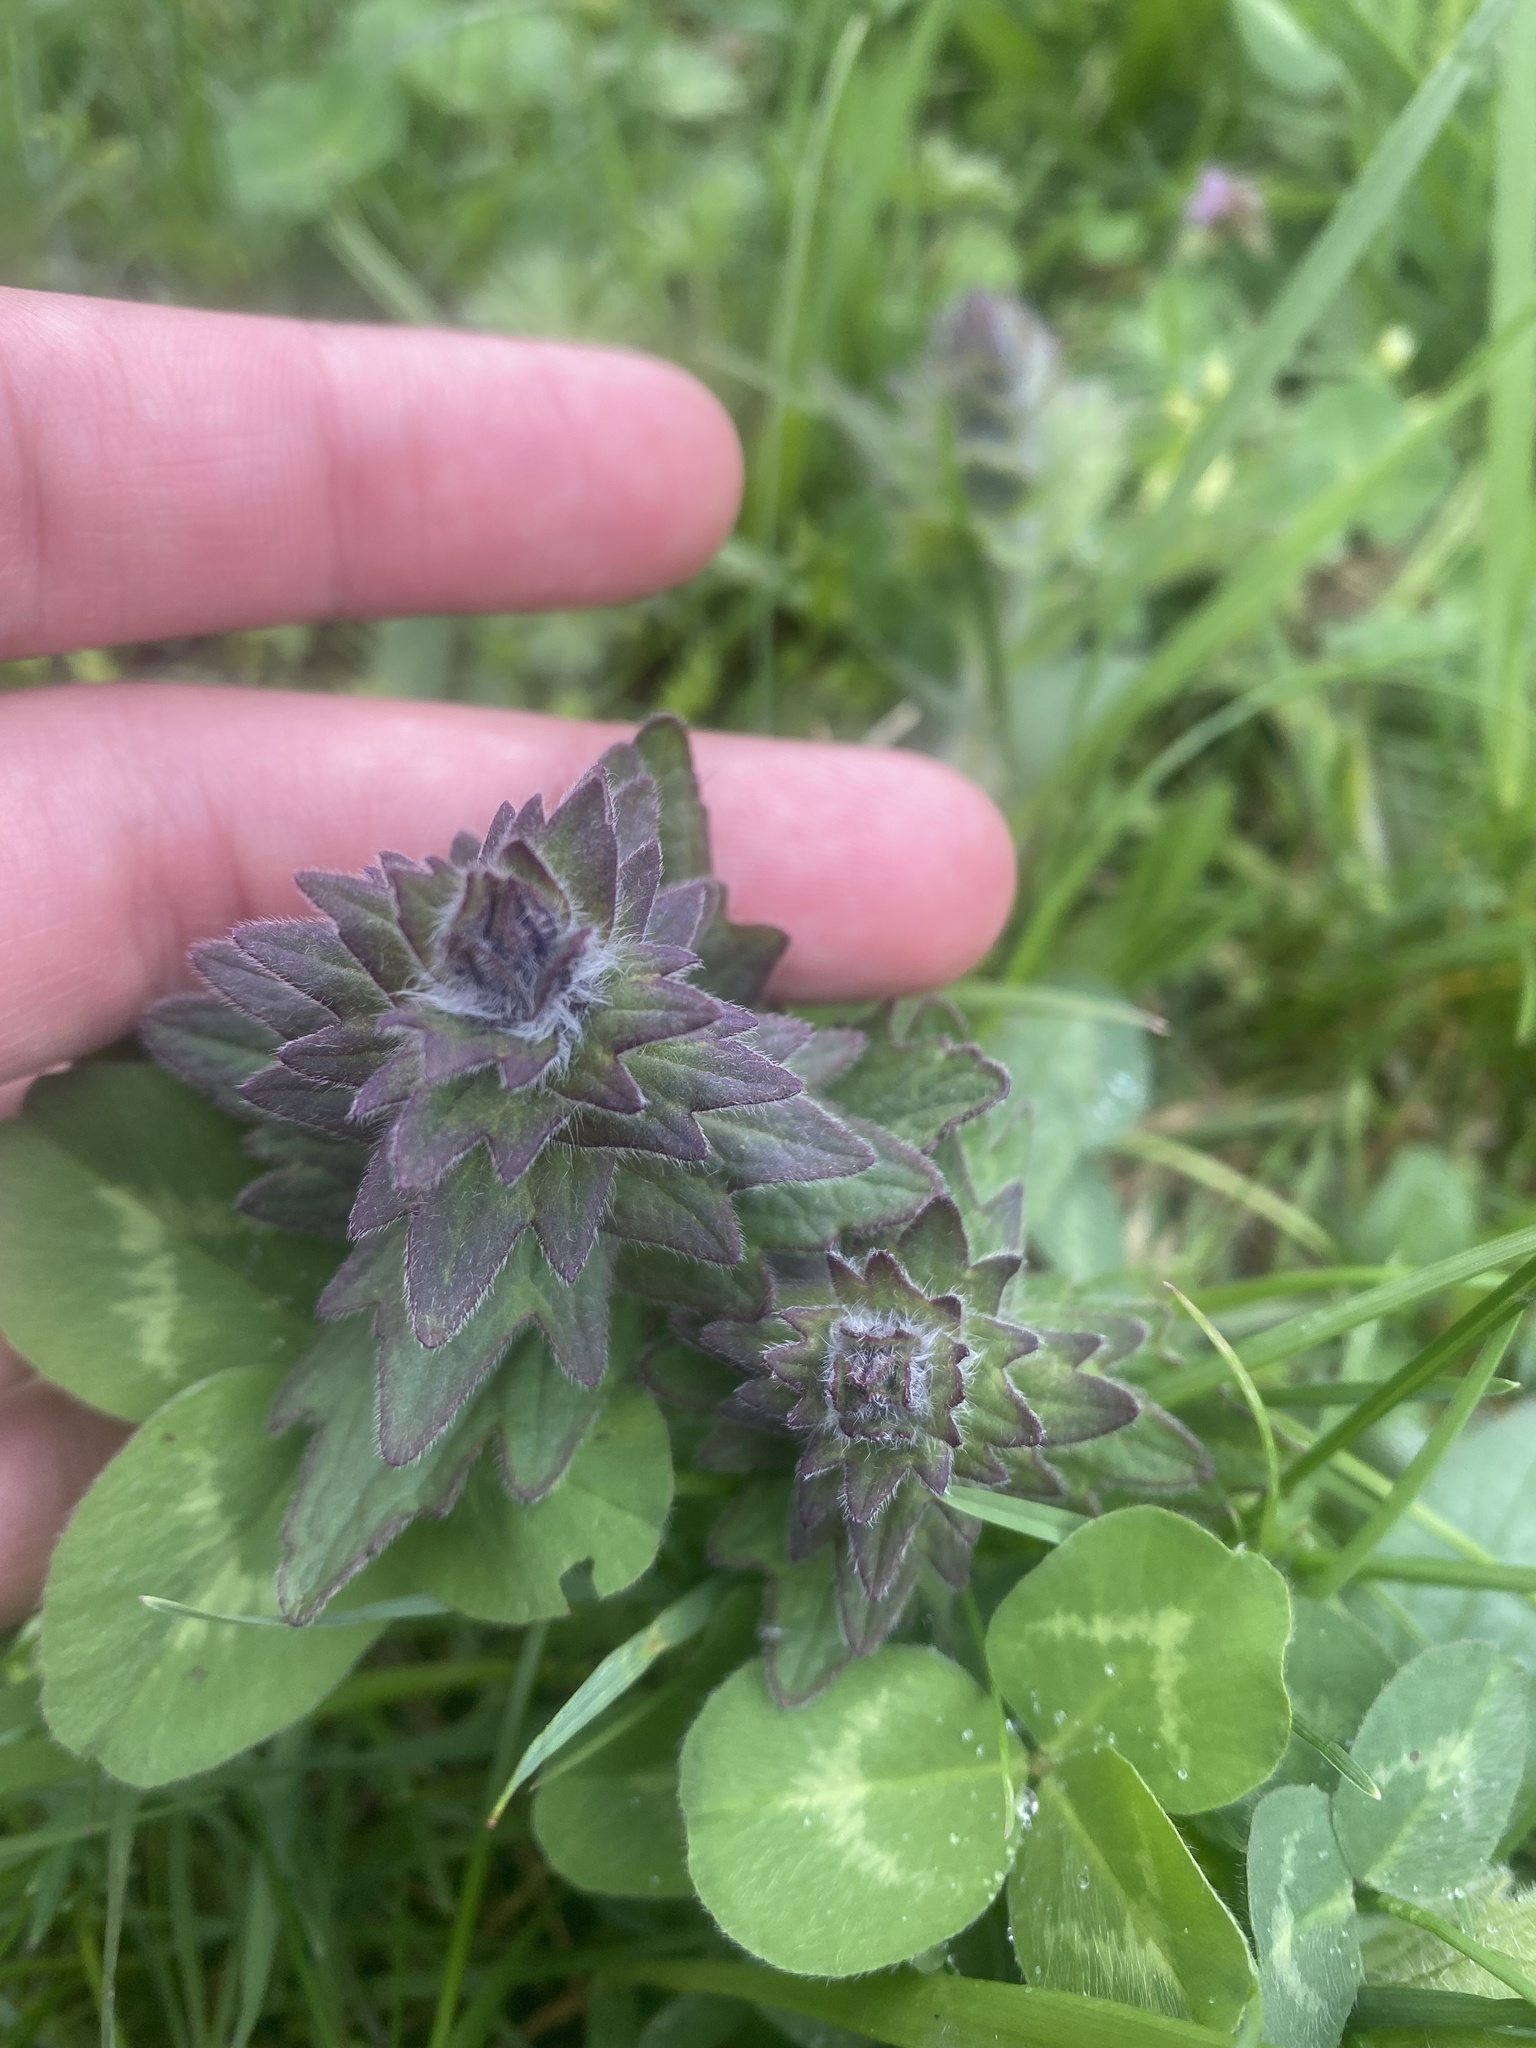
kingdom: Plantae
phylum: Tracheophyta
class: Magnoliopsida
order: Lamiales
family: Lamiaceae
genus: Ajuga
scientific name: Ajuga orientalis
